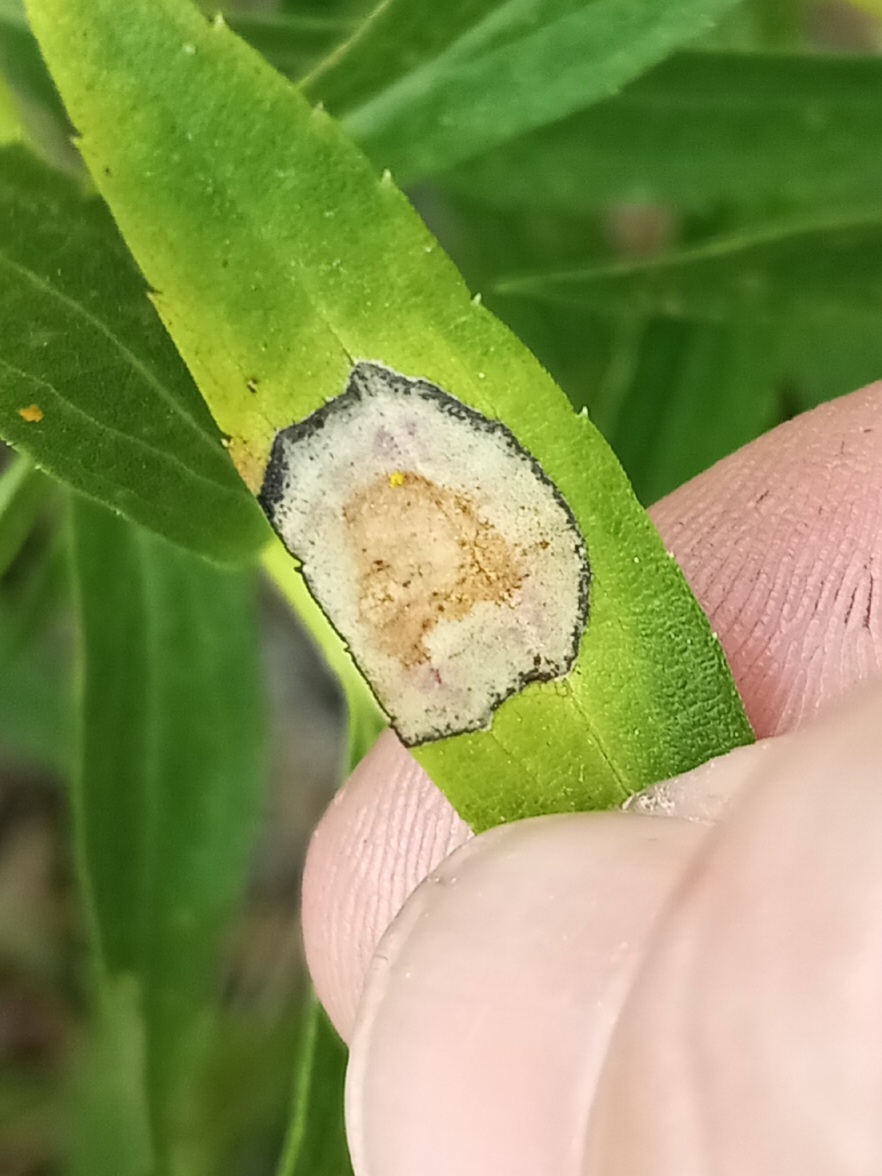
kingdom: Animalia
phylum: Arthropoda
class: Insecta
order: Diptera
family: Cecidomyiidae
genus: Asteromyia
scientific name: Asteromyia carbonifera
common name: Carbonifera goldenrod gall midge
